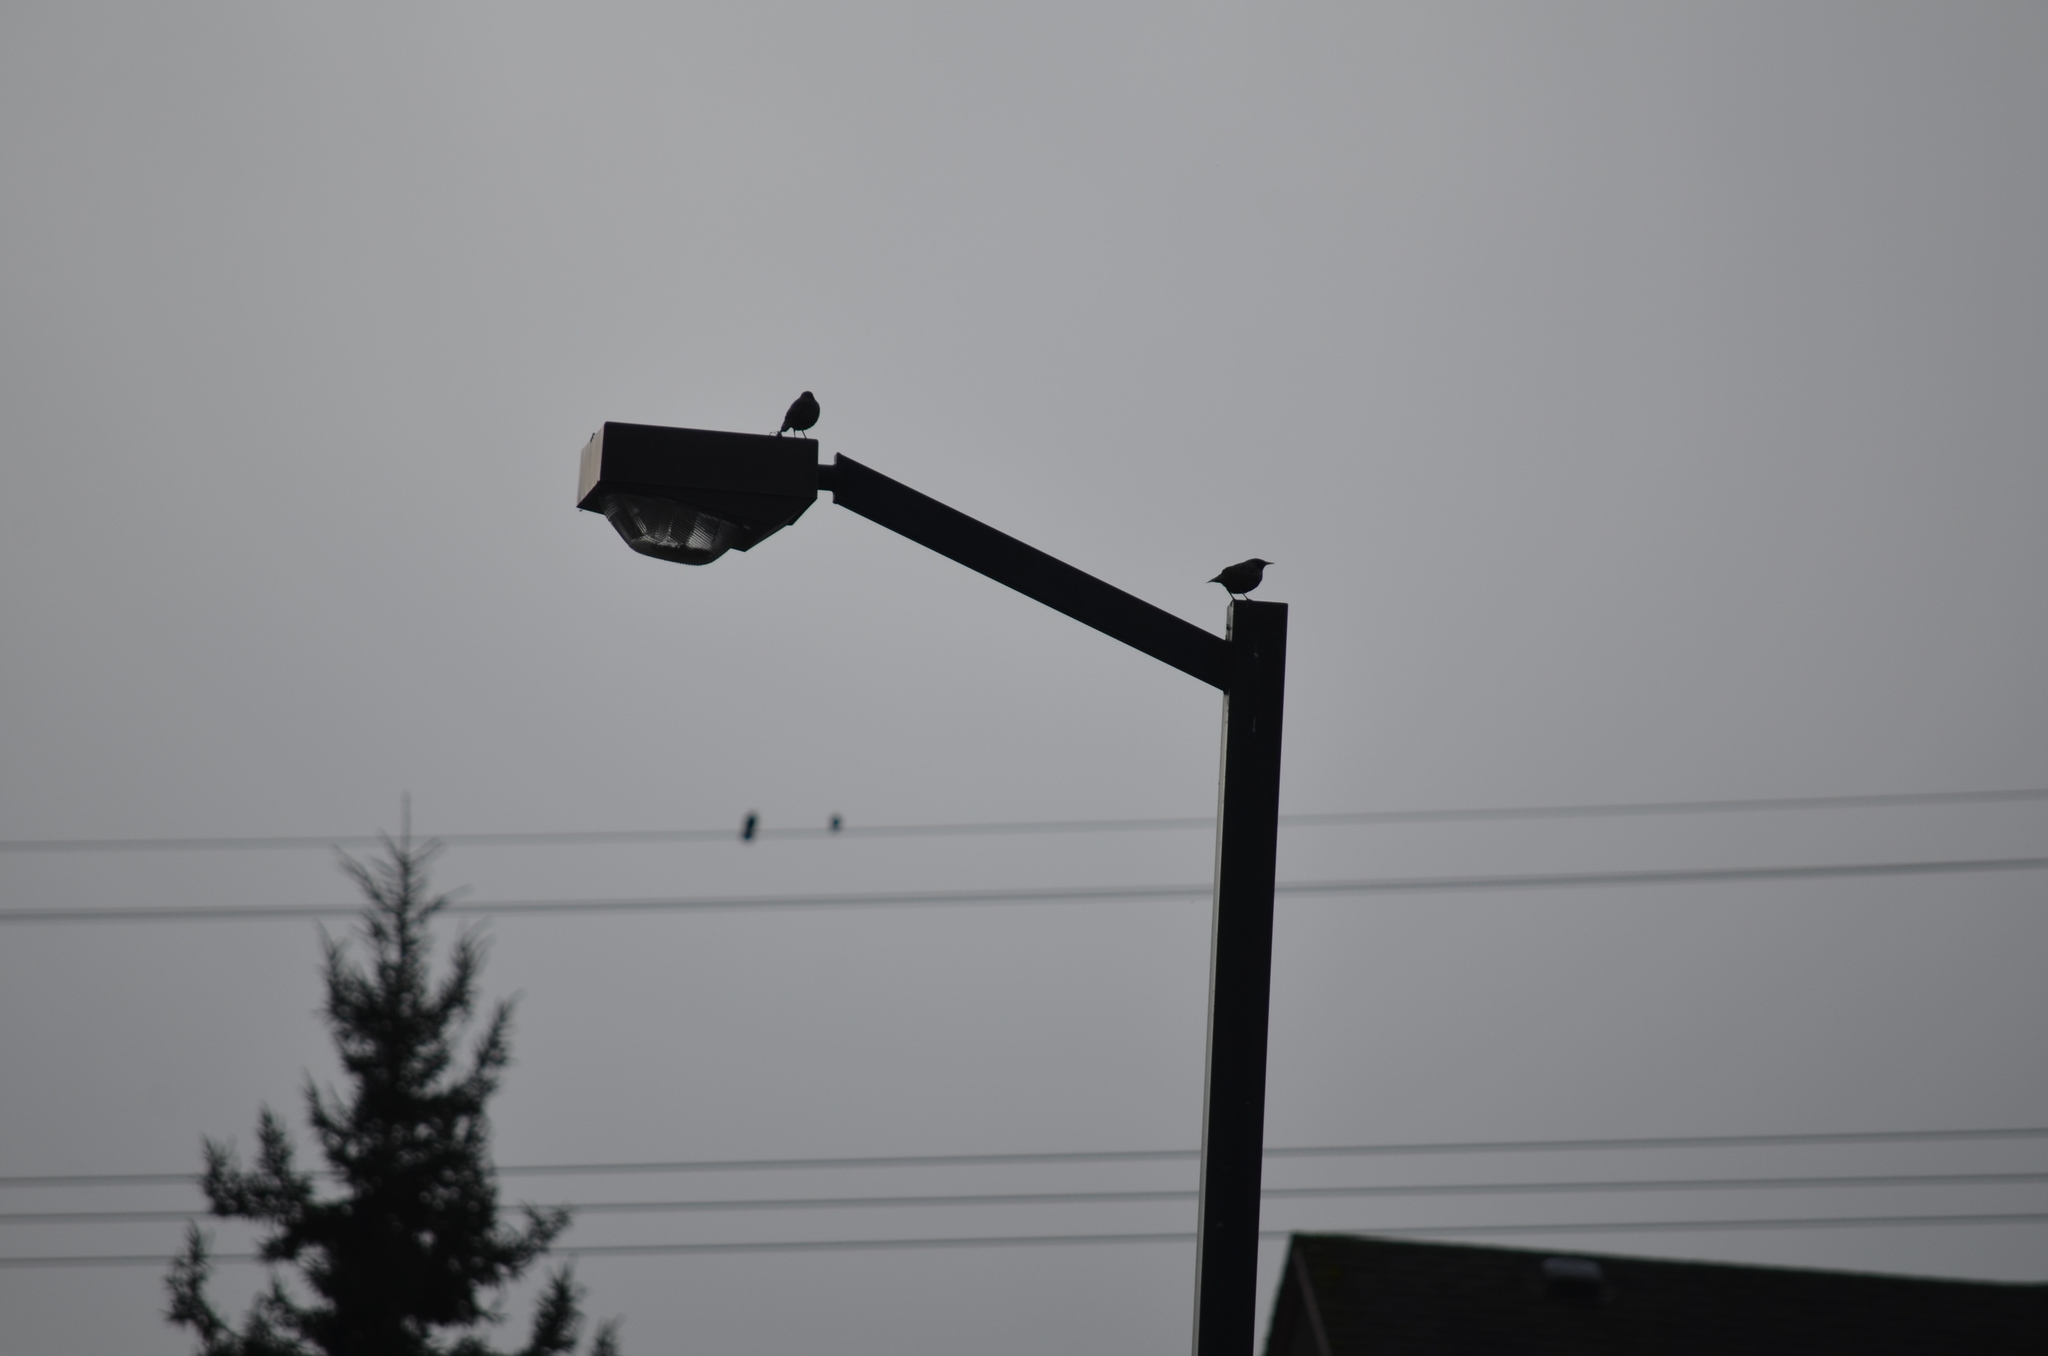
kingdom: Animalia
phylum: Chordata
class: Aves
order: Passeriformes
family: Sturnidae
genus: Sturnus
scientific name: Sturnus vulgaris
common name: Common starling
